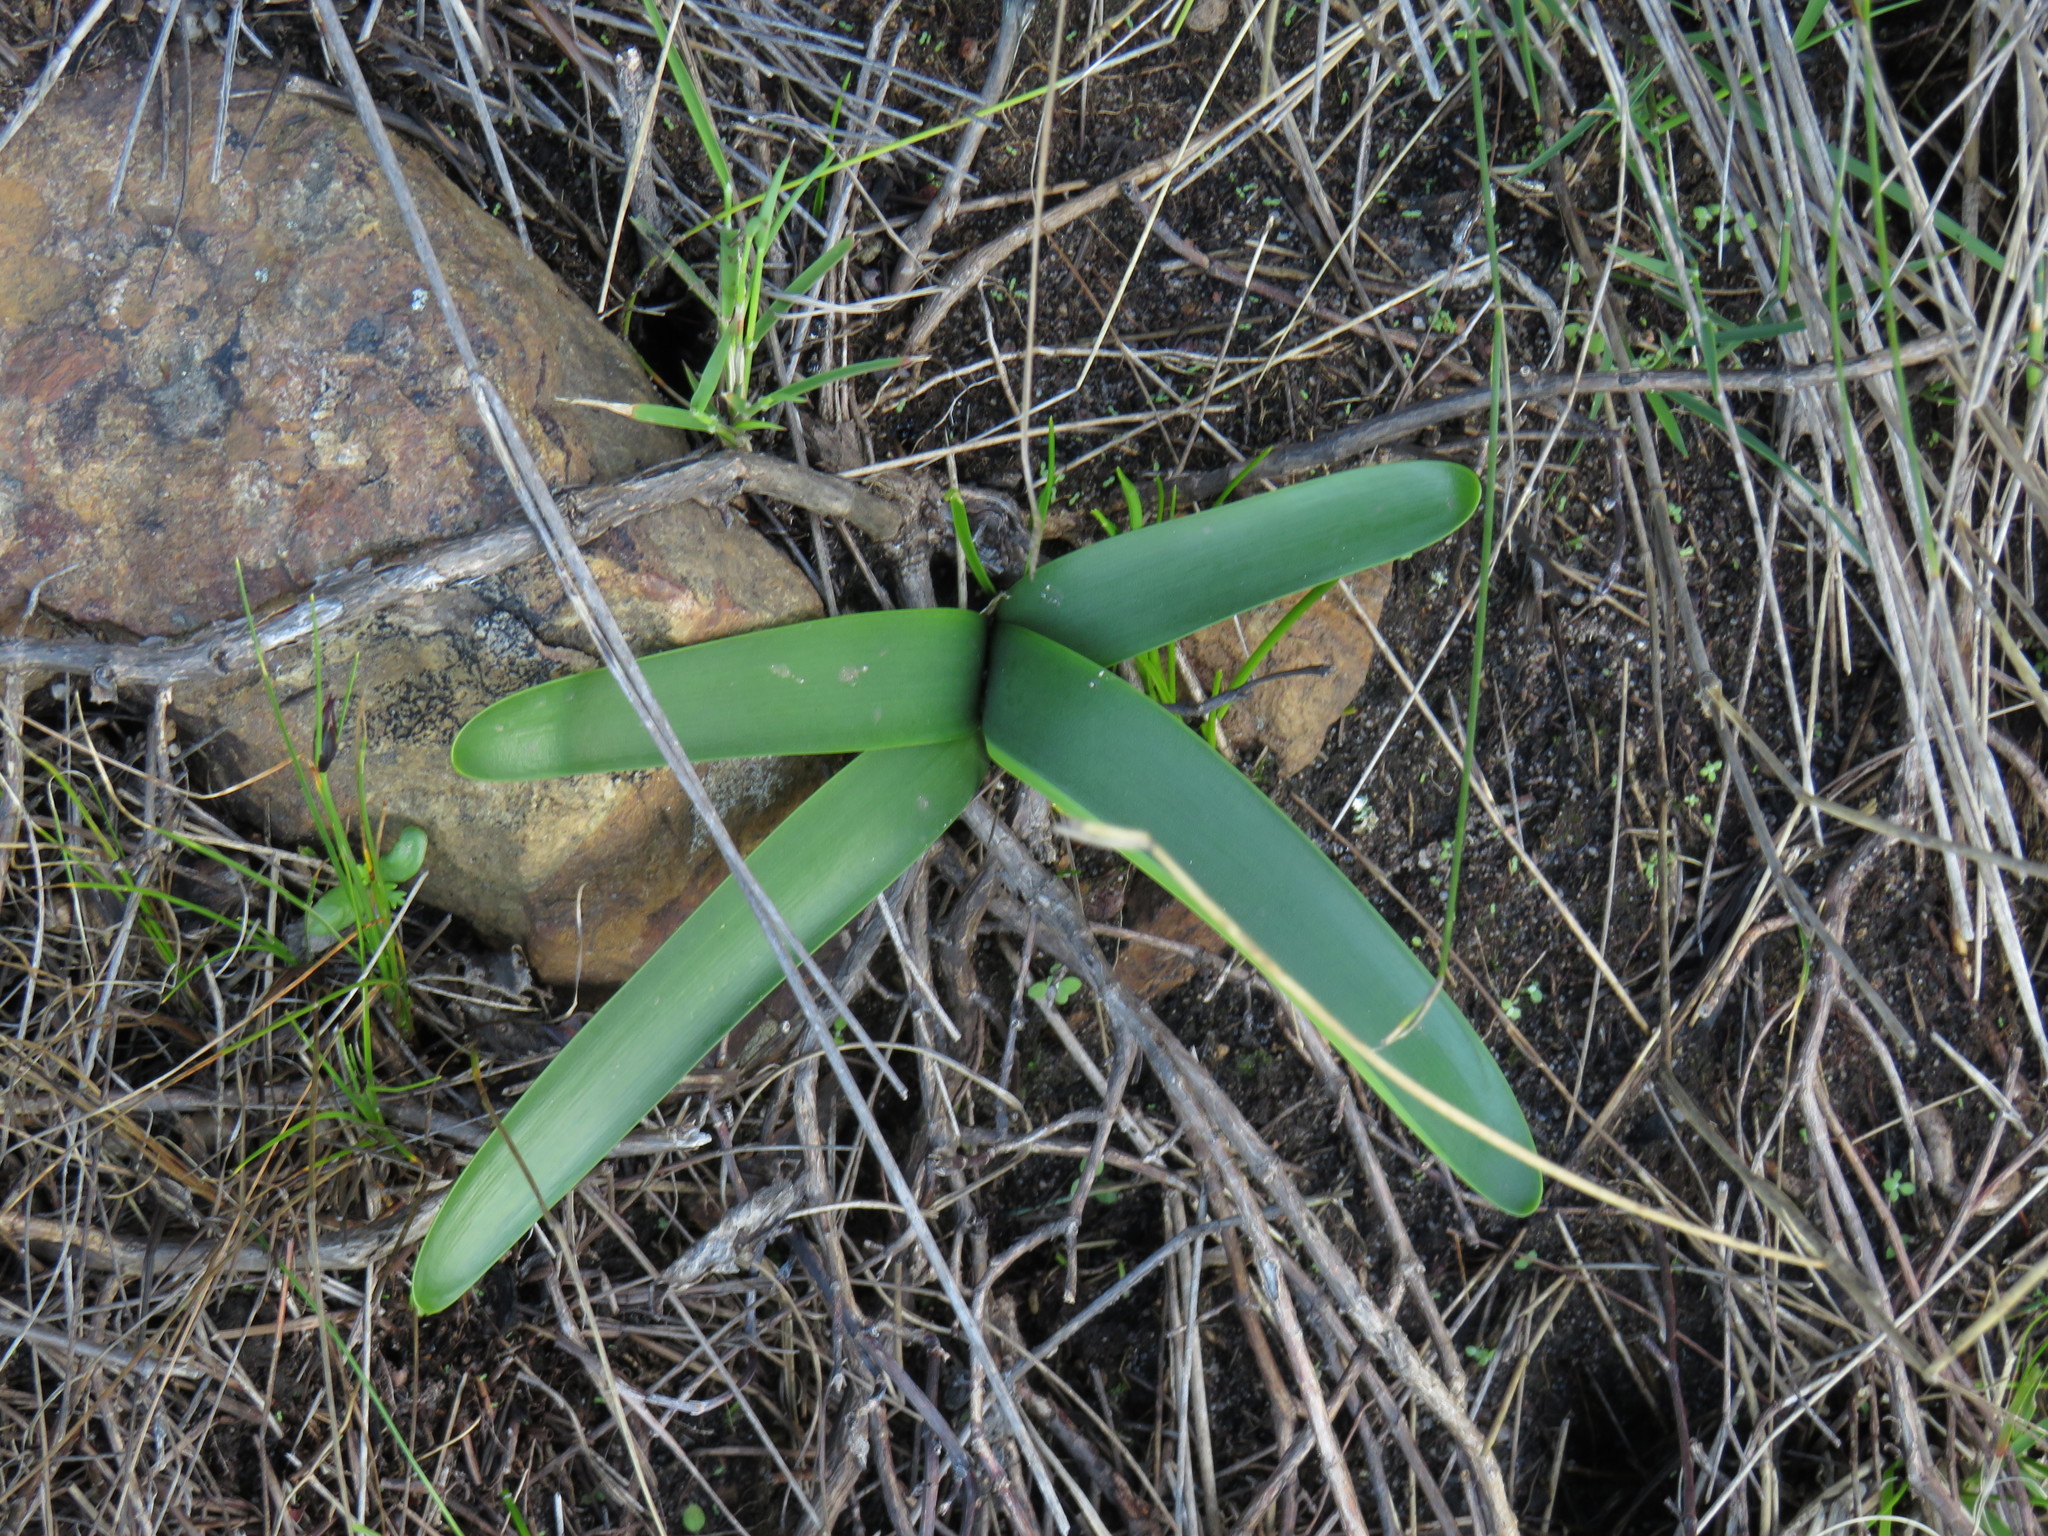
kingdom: Plantae
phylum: Tracheophyta
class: Liliopsida
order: Asparagales
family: Amaryllidaceae
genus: Nerine
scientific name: Nerine sarniensis
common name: Guernsey-lily
